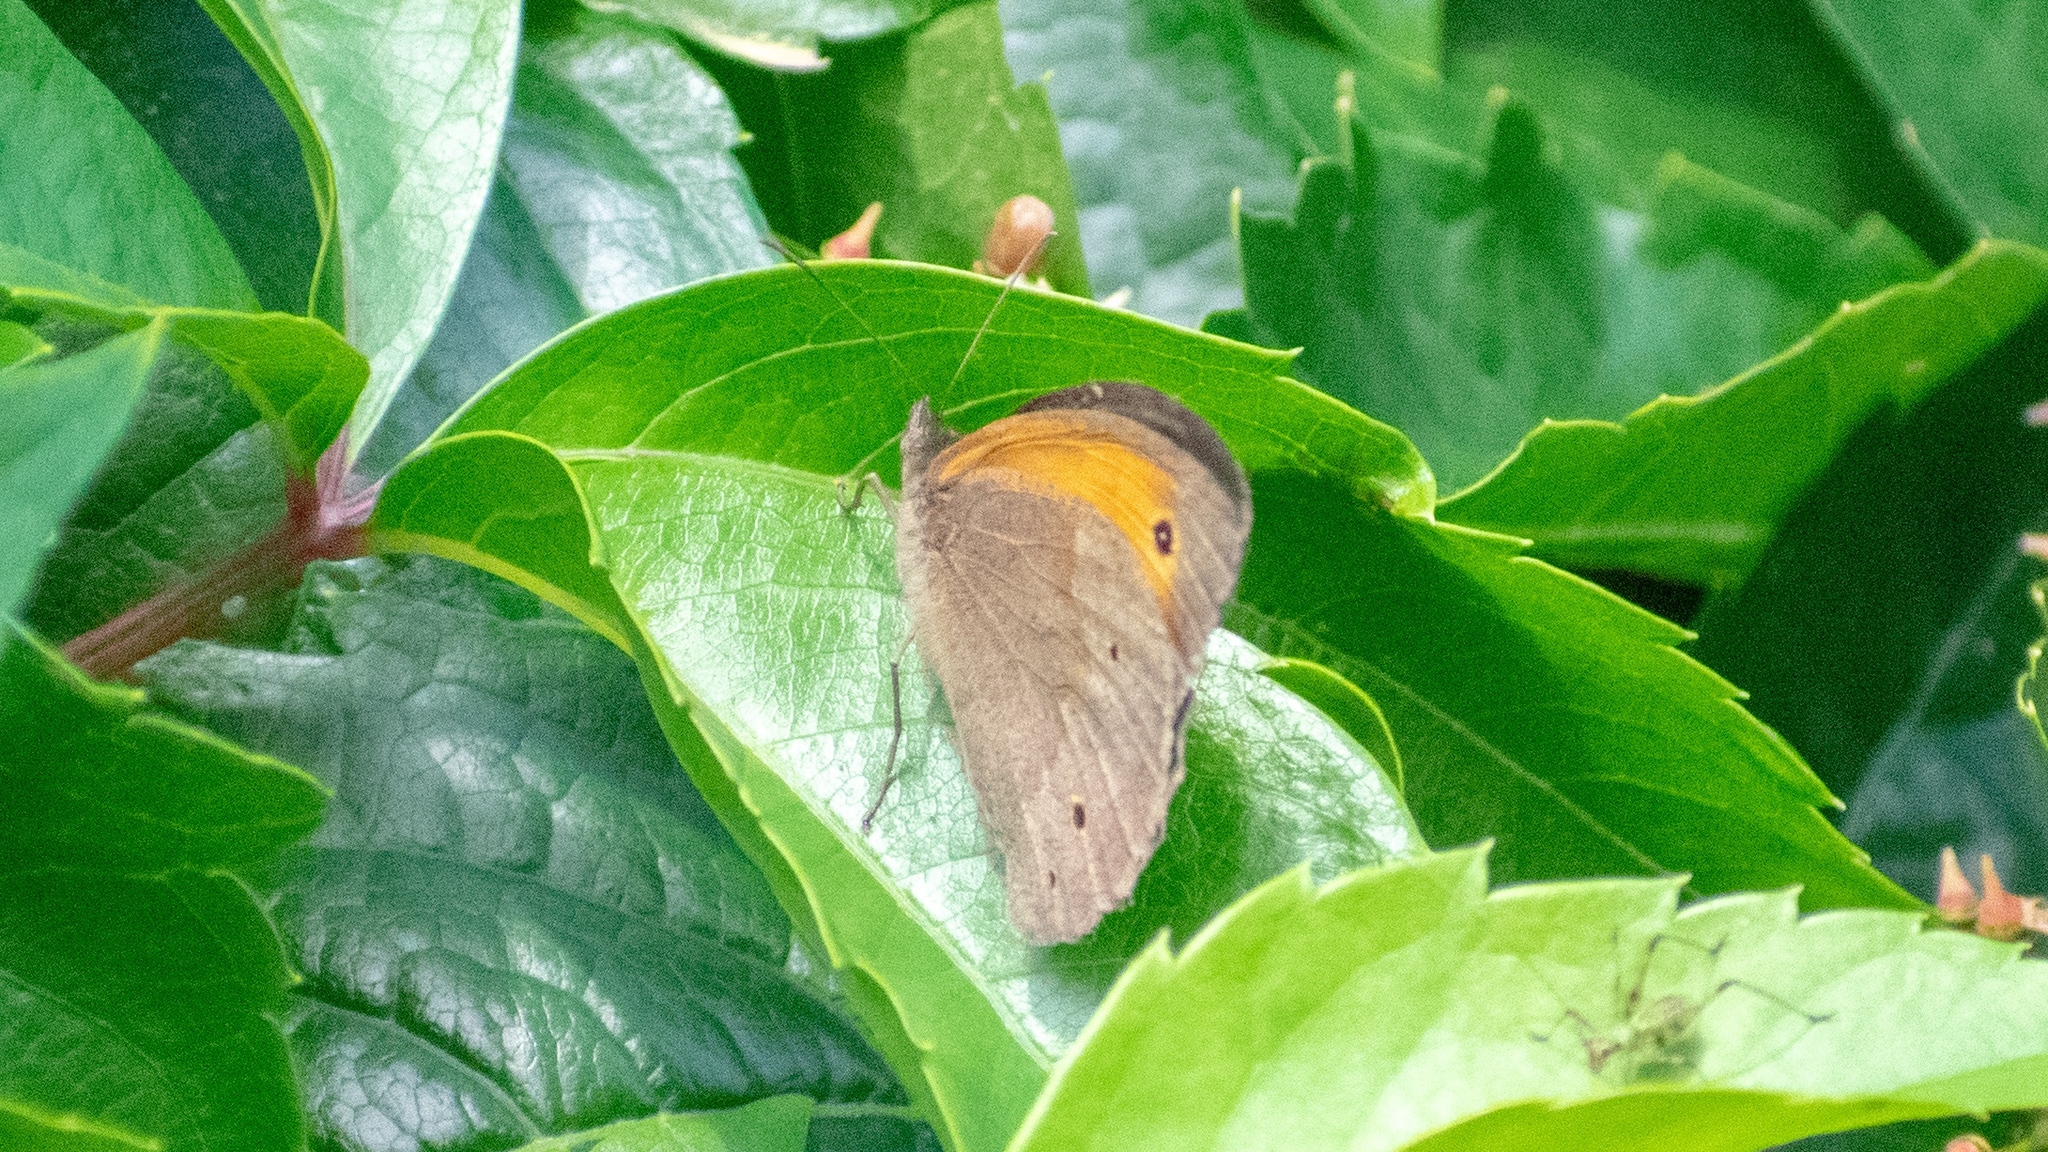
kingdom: Animalia
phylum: Arthropoda
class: Insecta
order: Lepidoptera
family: Nymphalidae
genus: Maniola
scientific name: Maniola jurtina
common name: Meadow brown
